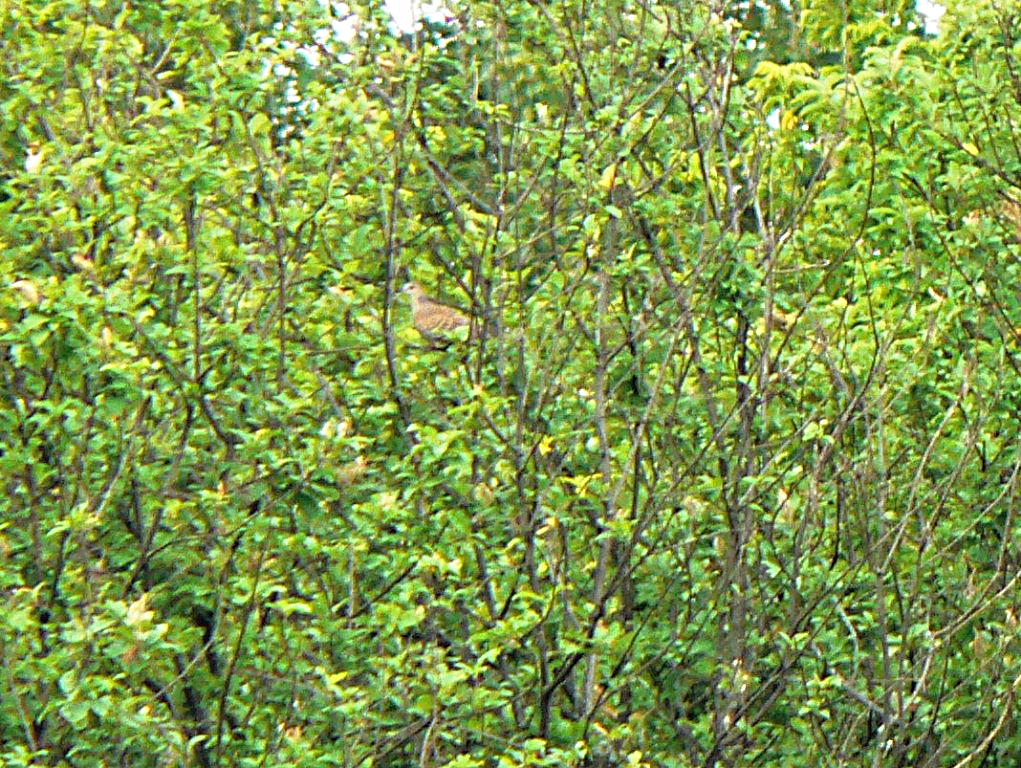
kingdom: Animalia
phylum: Chordata
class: Aves
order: Columbiformes
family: Columbidae
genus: Streptopelia
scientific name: Streptopelia orientalis
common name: Oriental turtle dove
